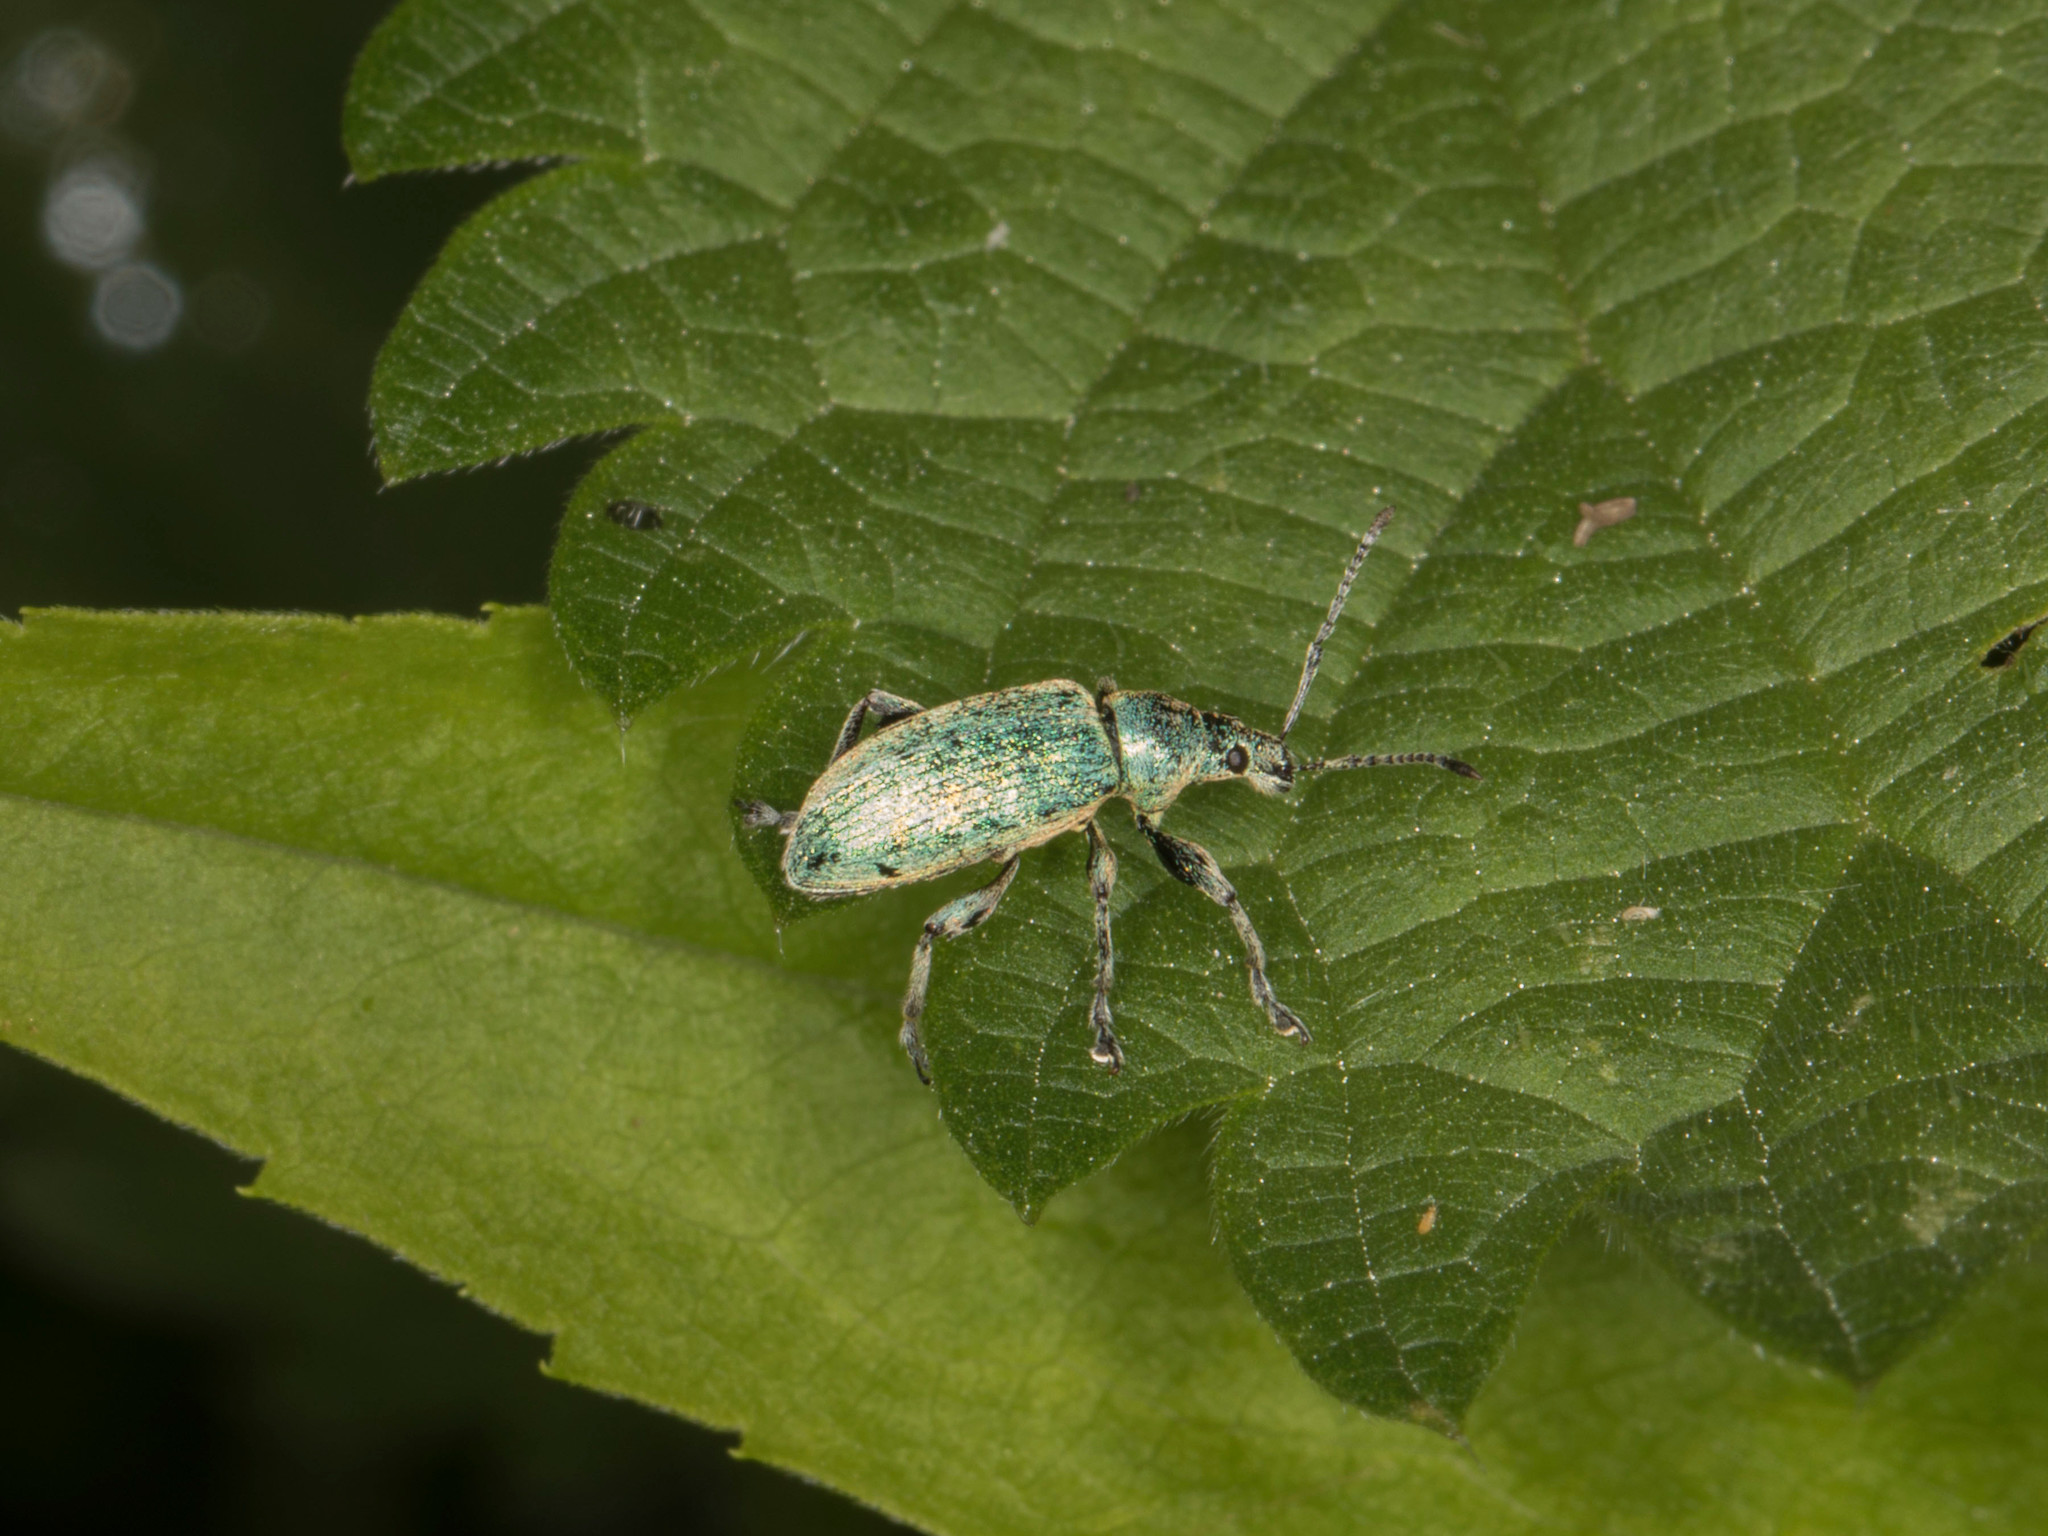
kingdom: Animalia
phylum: Arthropoda
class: Insecta
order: Coleoptera
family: Curculionidae
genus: Phyllobius
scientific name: Phyllobius pomaceus
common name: Green nettle weevil
